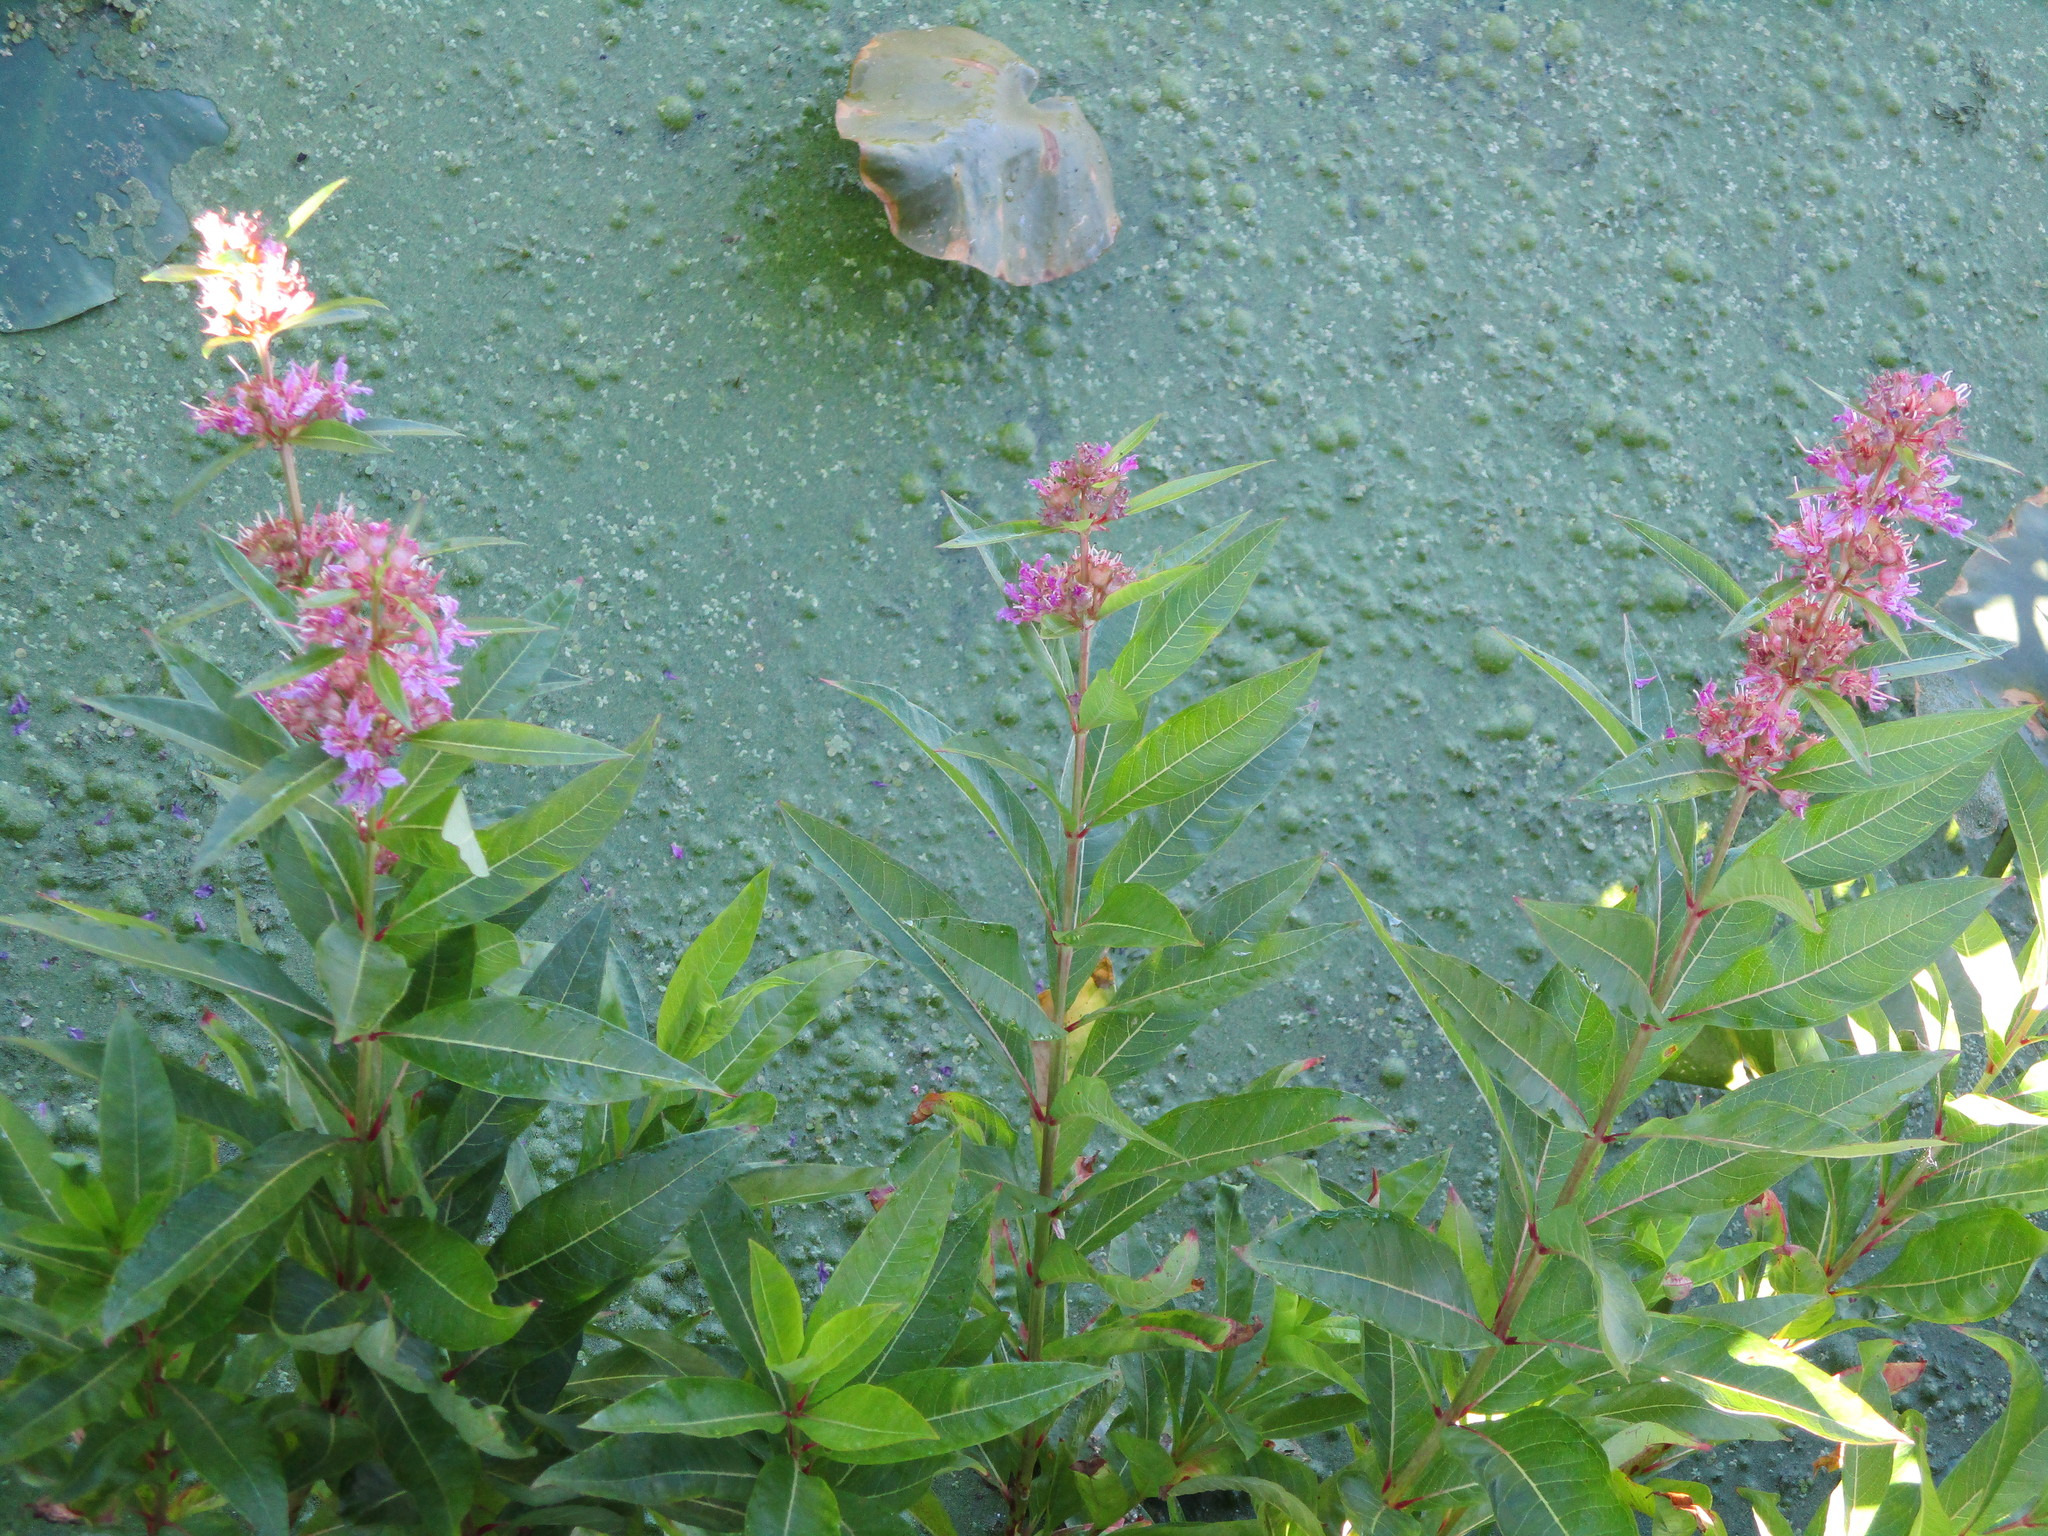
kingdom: Plantae
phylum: Tracheophyta
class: Magnoliopsida
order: Myrtales
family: Lythraceae
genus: Decodon
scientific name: Decodon verticillatus
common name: Hairy swamp loosestrife
